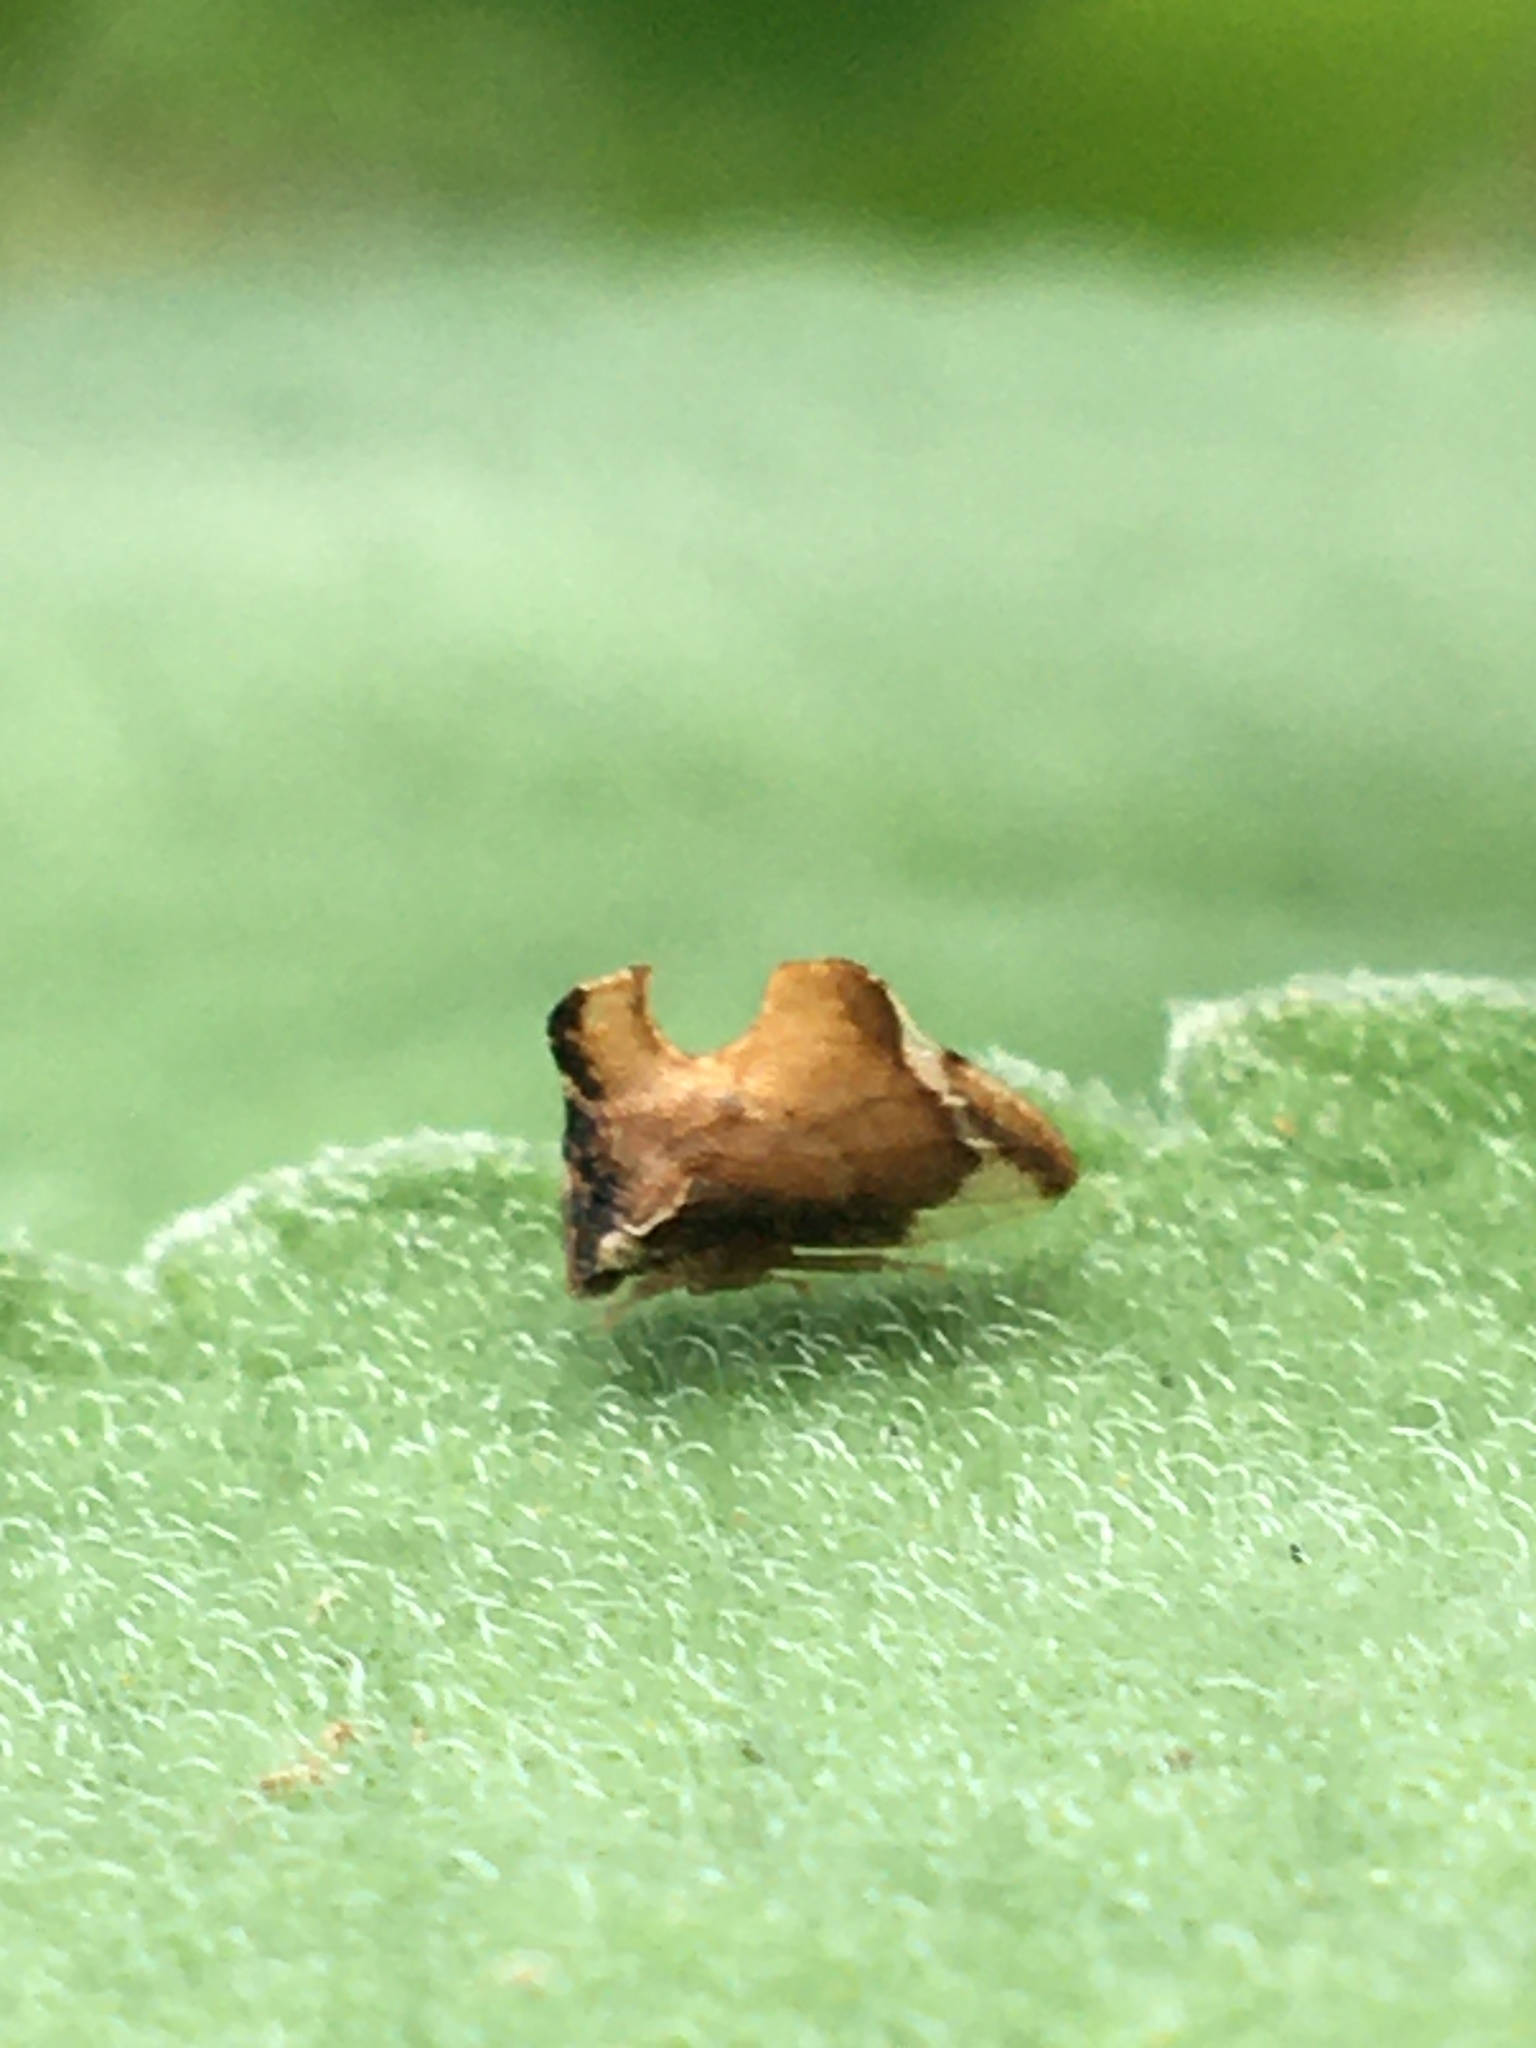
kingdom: Animalia
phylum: Arthropoda
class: Insecta
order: Hemiptera
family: Membracidae
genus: Entylia
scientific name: Entylia carinata
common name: Keeled treehopper
